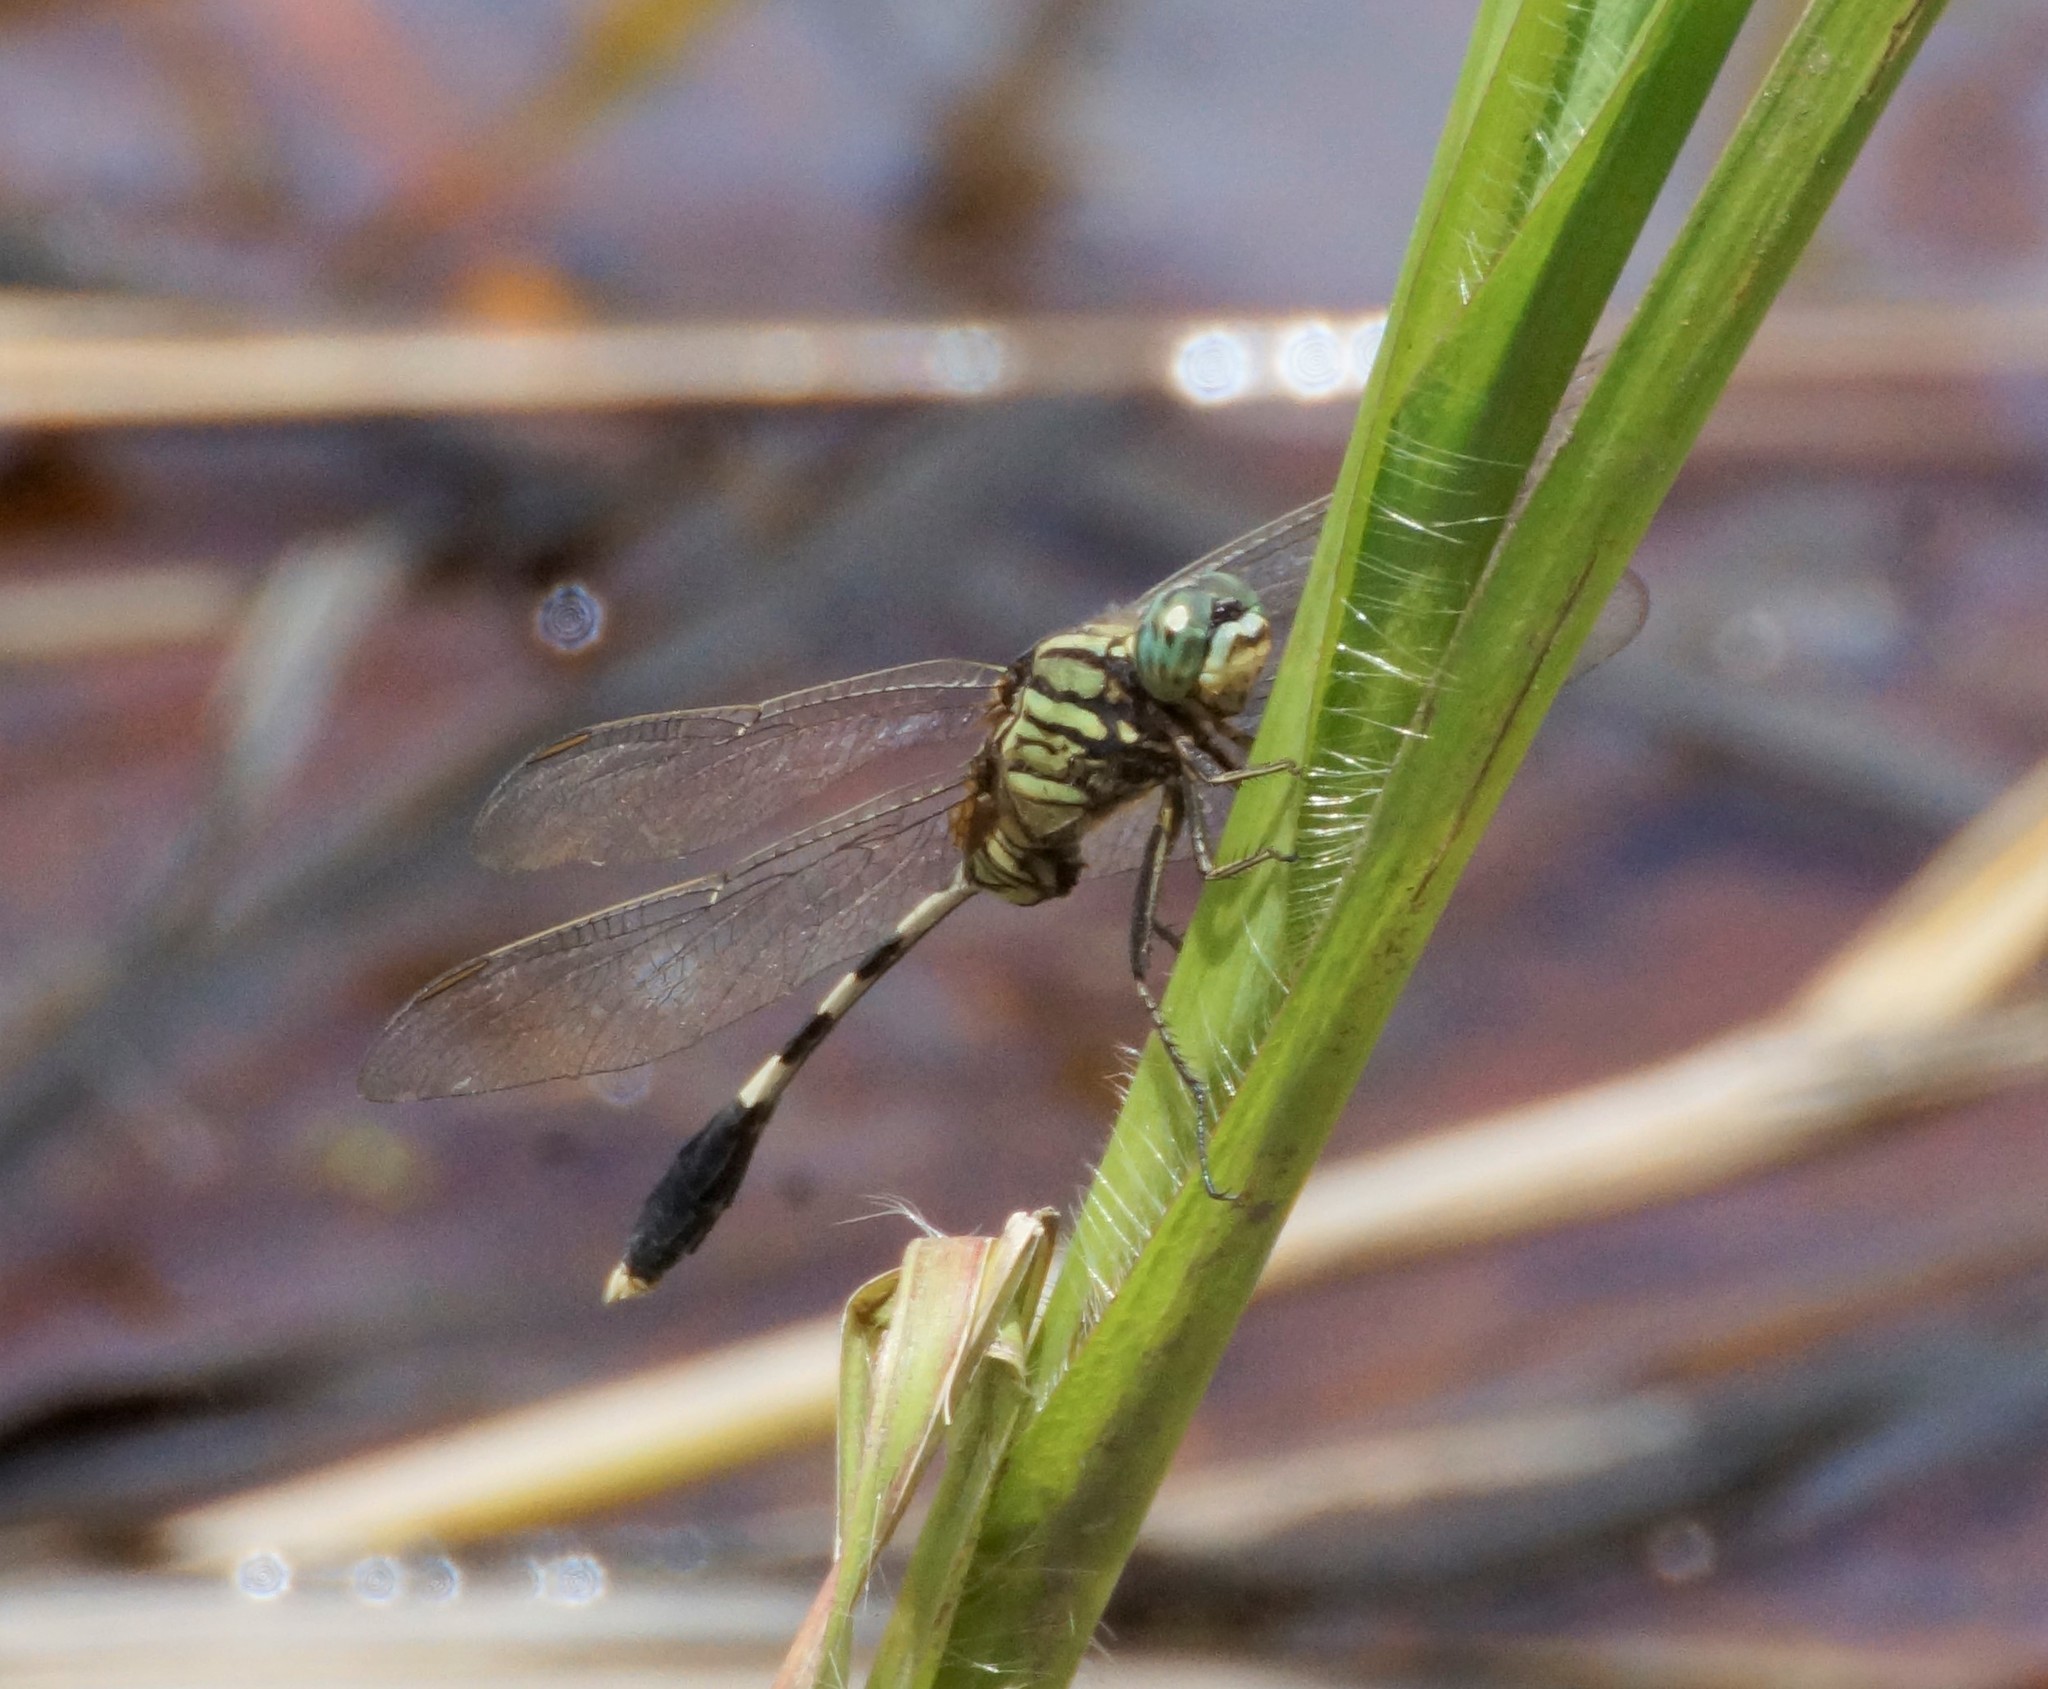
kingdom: Animalia
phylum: Arthropoda
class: Insecta
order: Odonata
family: Libellulidae
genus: Orthetrum
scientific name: Orthetrum sabina
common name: Slender skimmer
